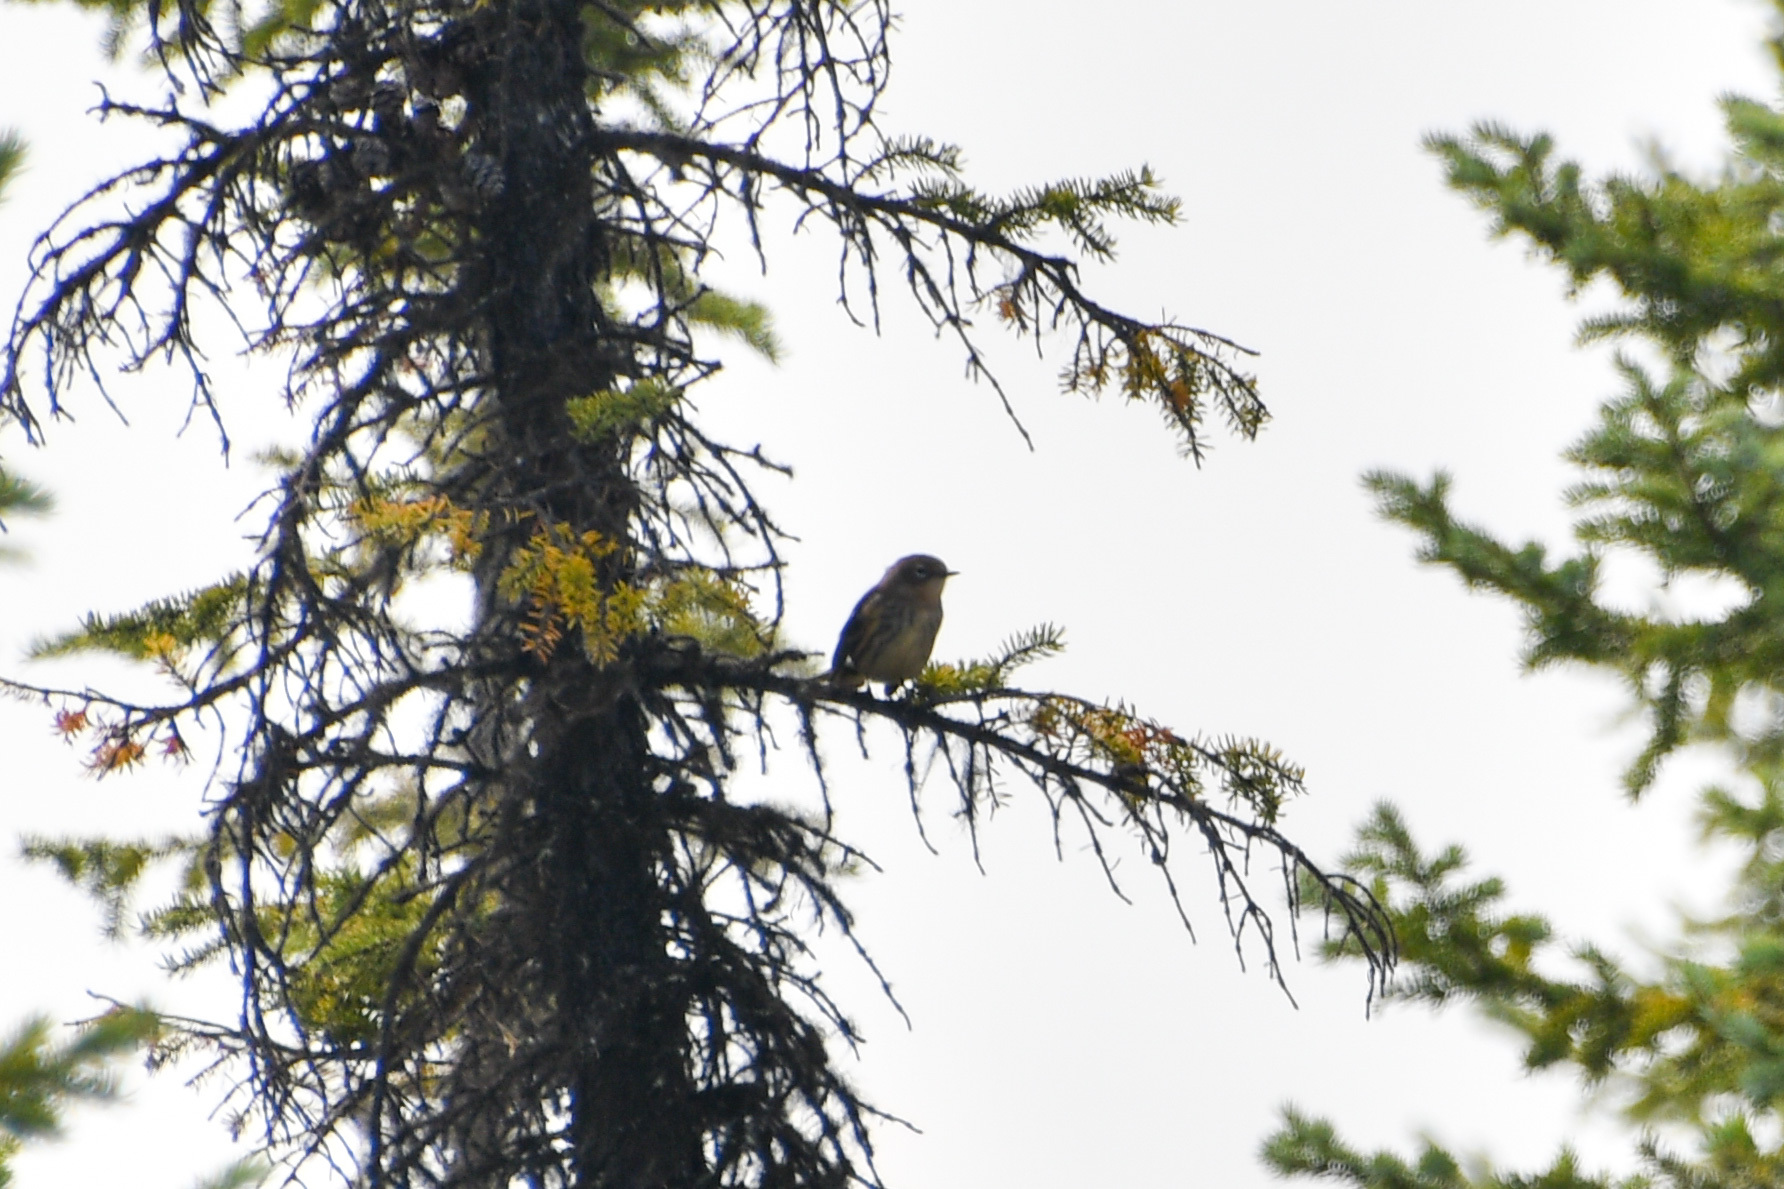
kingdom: Animalia
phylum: Chordata
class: Aves
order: Passeriformes
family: Parulidae
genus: Setophaga
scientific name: Setophaga auduboni
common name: Audubon's warbler
